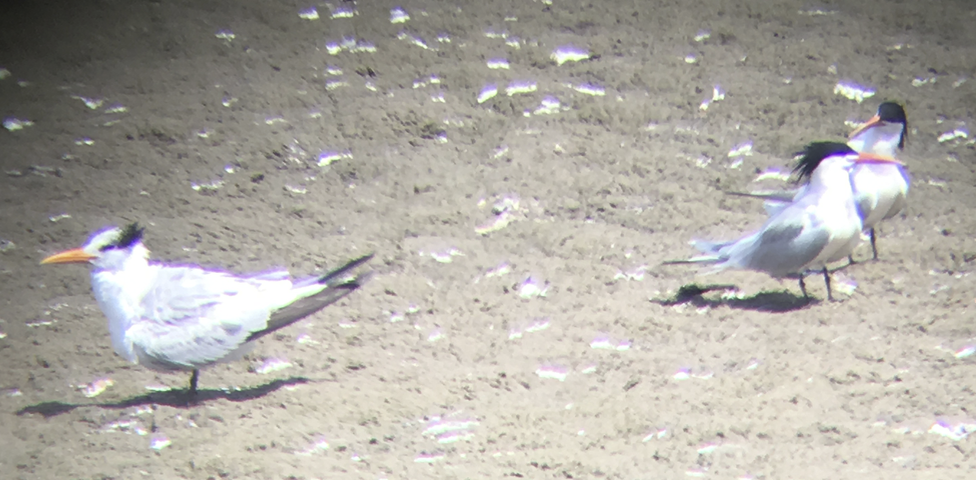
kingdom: Animalia
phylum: Chordata
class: Aves
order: Charadriiformes
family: Laridae
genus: Thalasseus
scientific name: Thalasseus elegans
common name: Elegant tern
